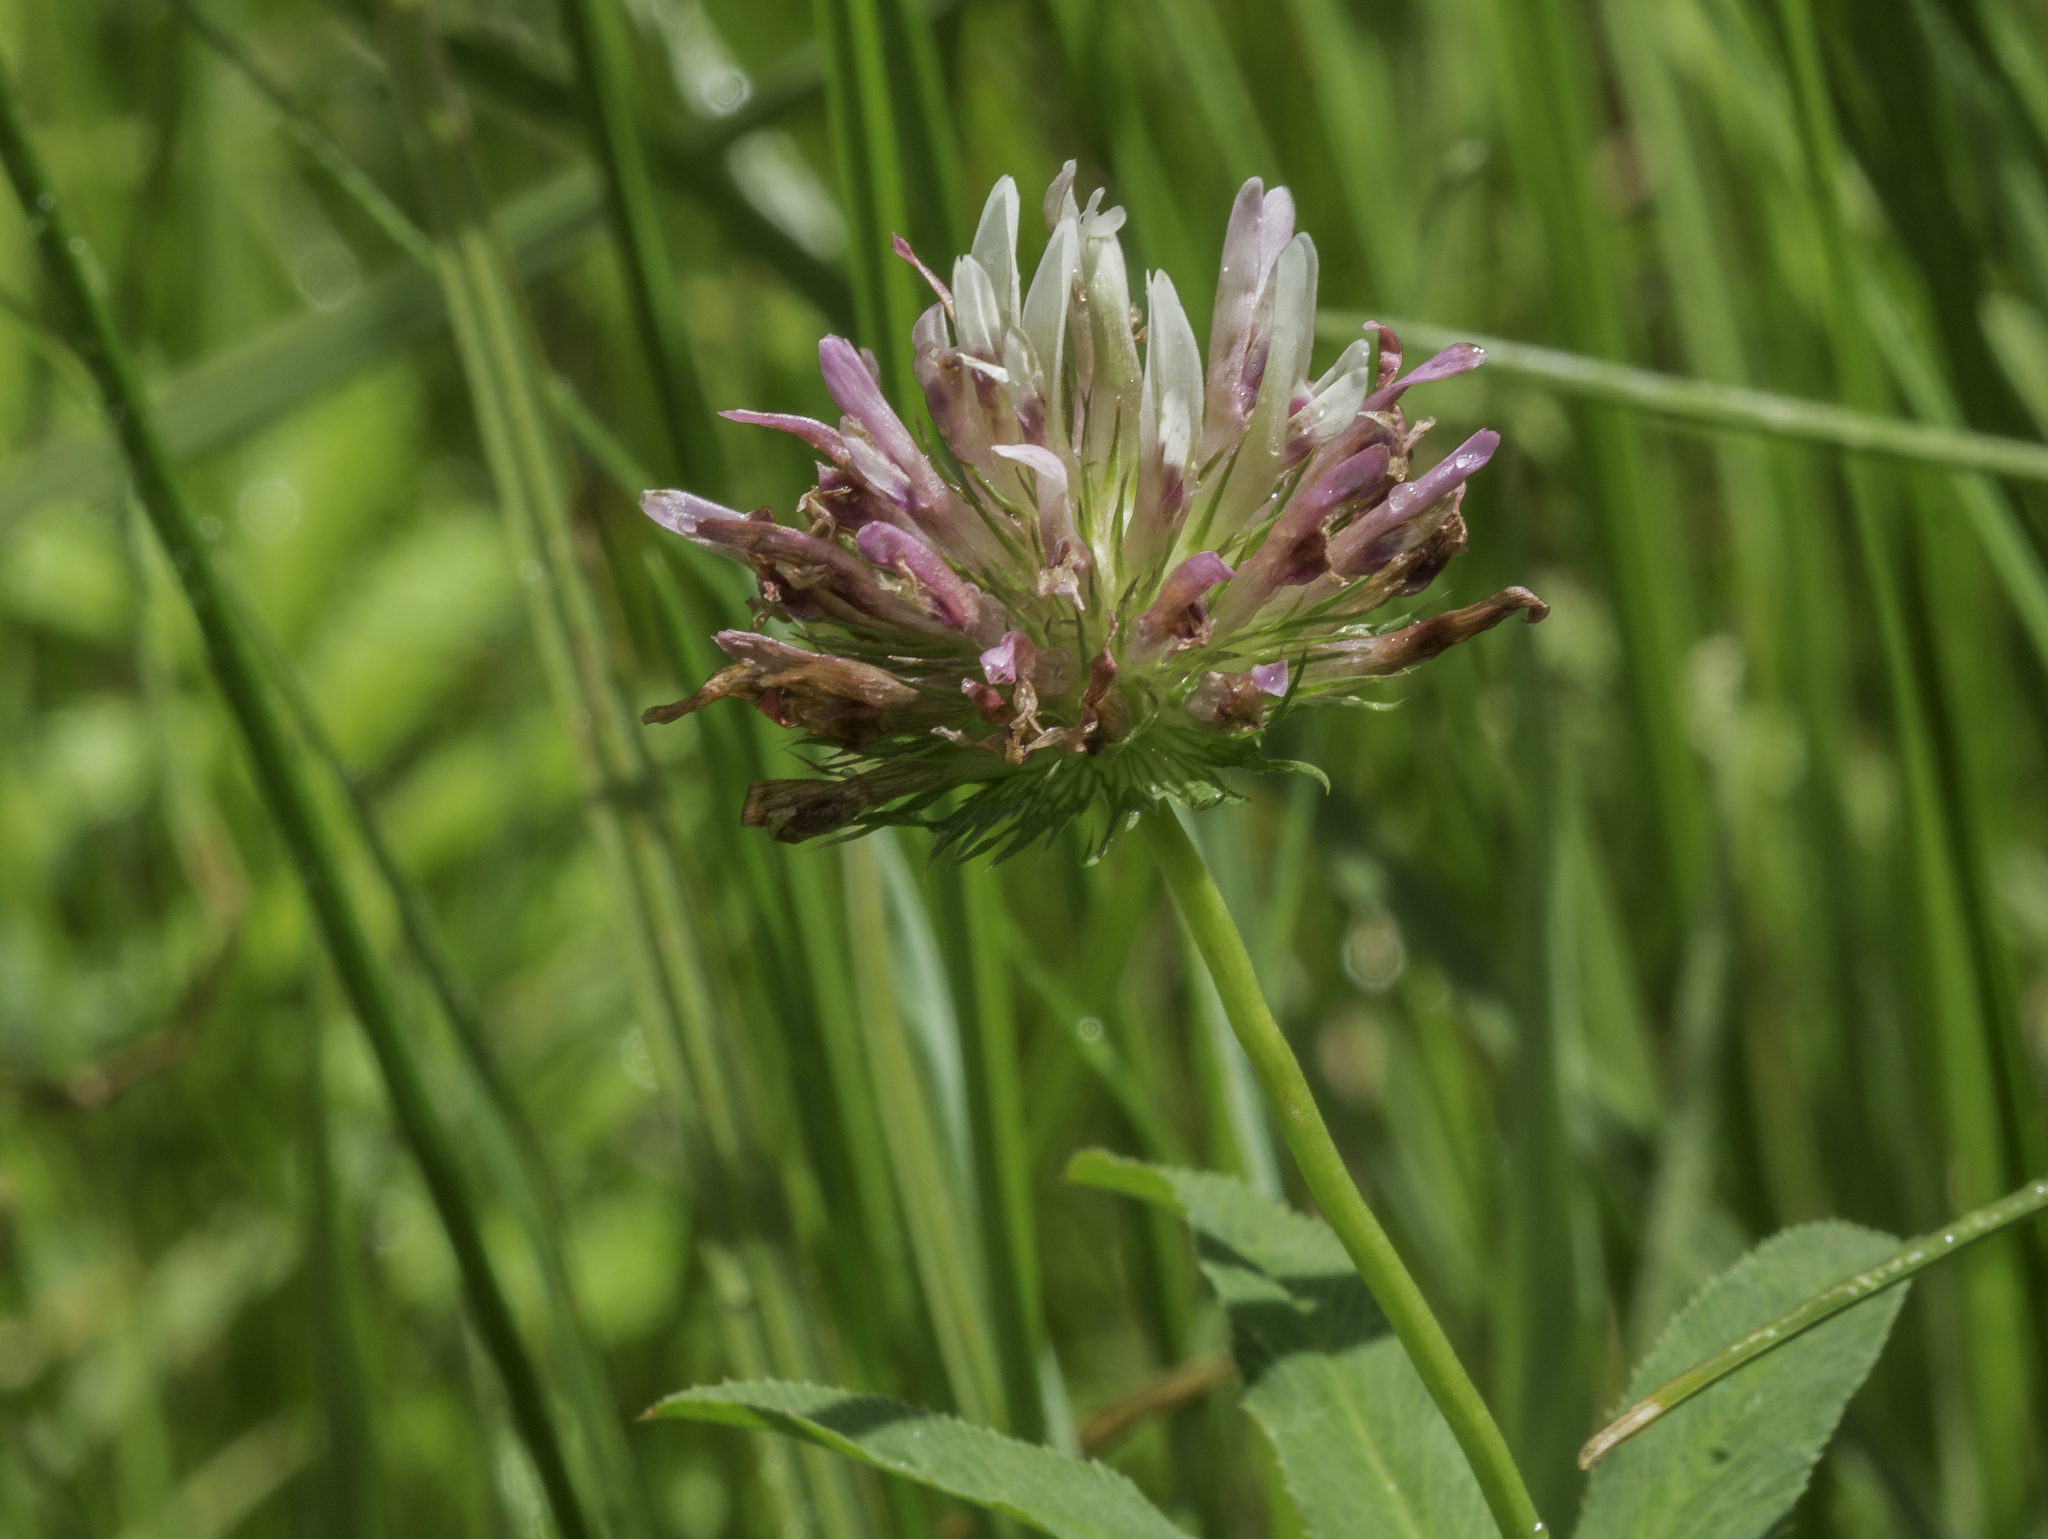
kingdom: Plantae
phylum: Tracheophyta
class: Magnoliopsida
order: Fabales
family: Fabaceae
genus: Trifolium
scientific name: Trifolium wormskioldii
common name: Springbank clover
